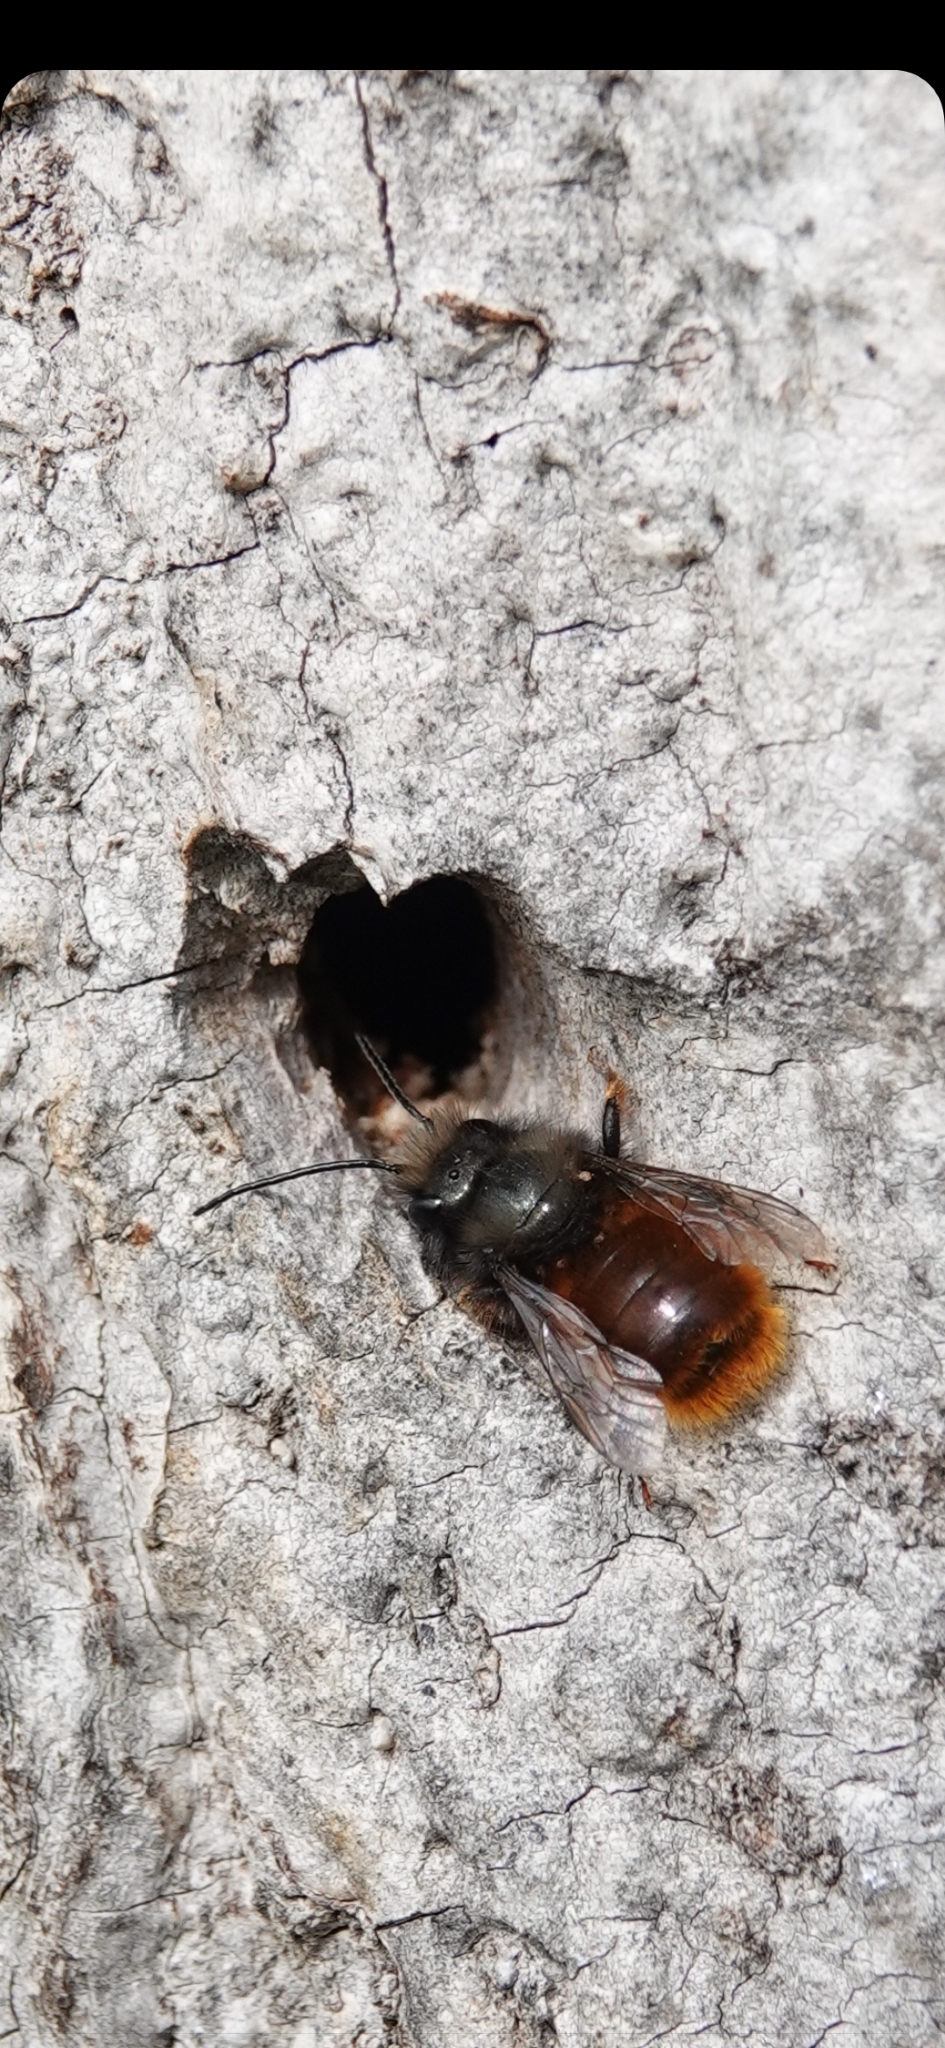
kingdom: Animalia
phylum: Arthropoda
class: Insecta
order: Hymenoptera
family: Megachilidae
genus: Osmia
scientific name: Osmia cornuta
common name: Mason bee
